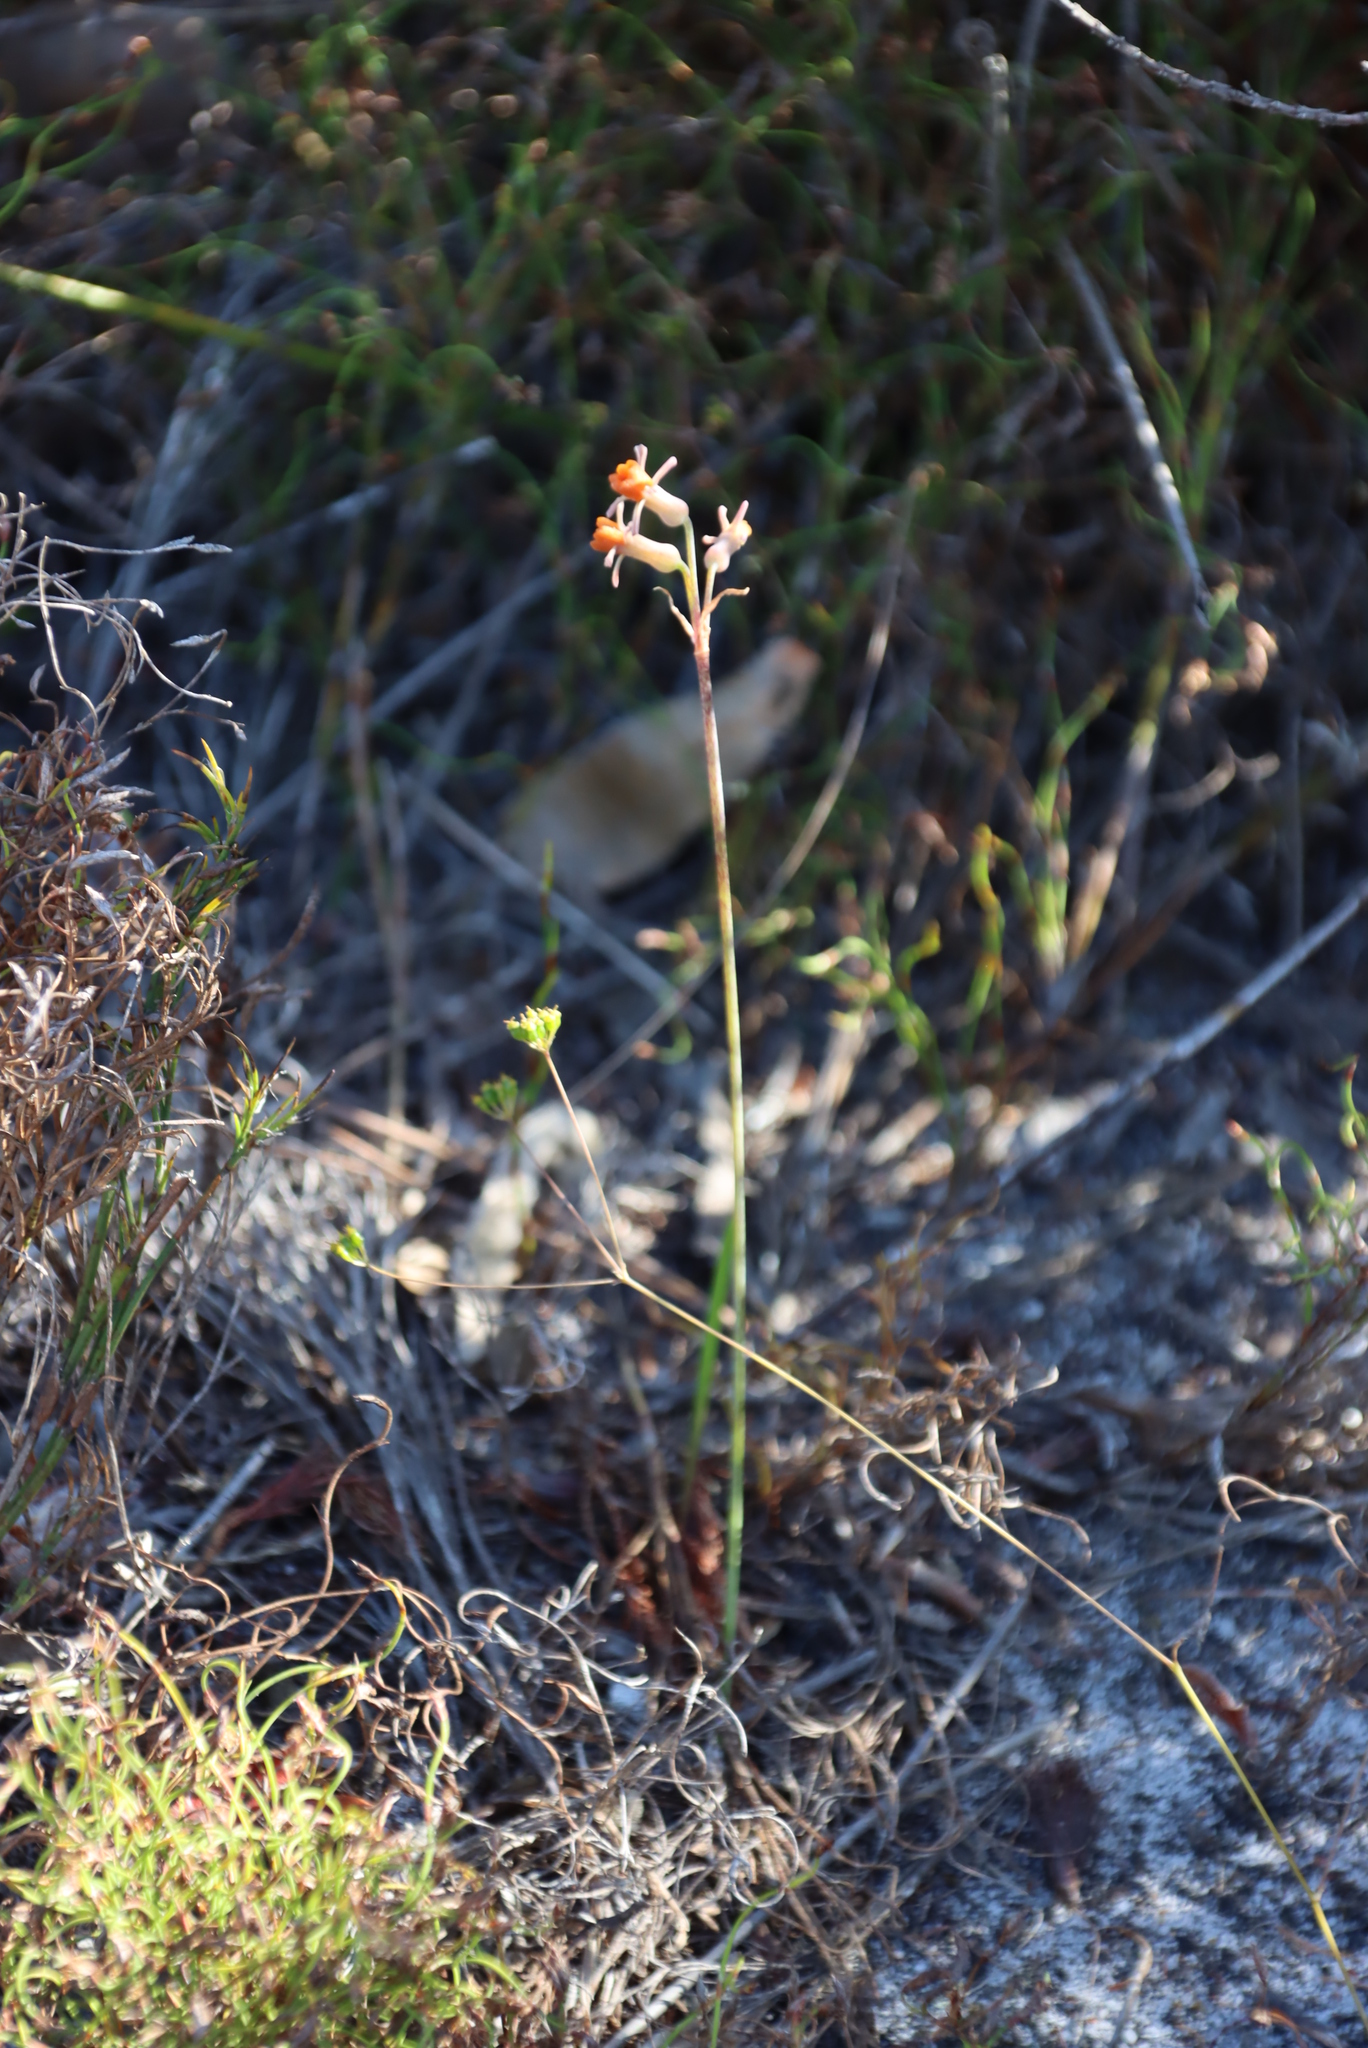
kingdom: Plantae
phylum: Tracheophyta
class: Liliopsida
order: Asparagales
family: Amaryllidaceae
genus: Tulbaghia
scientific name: Tulbaghia alliacea
